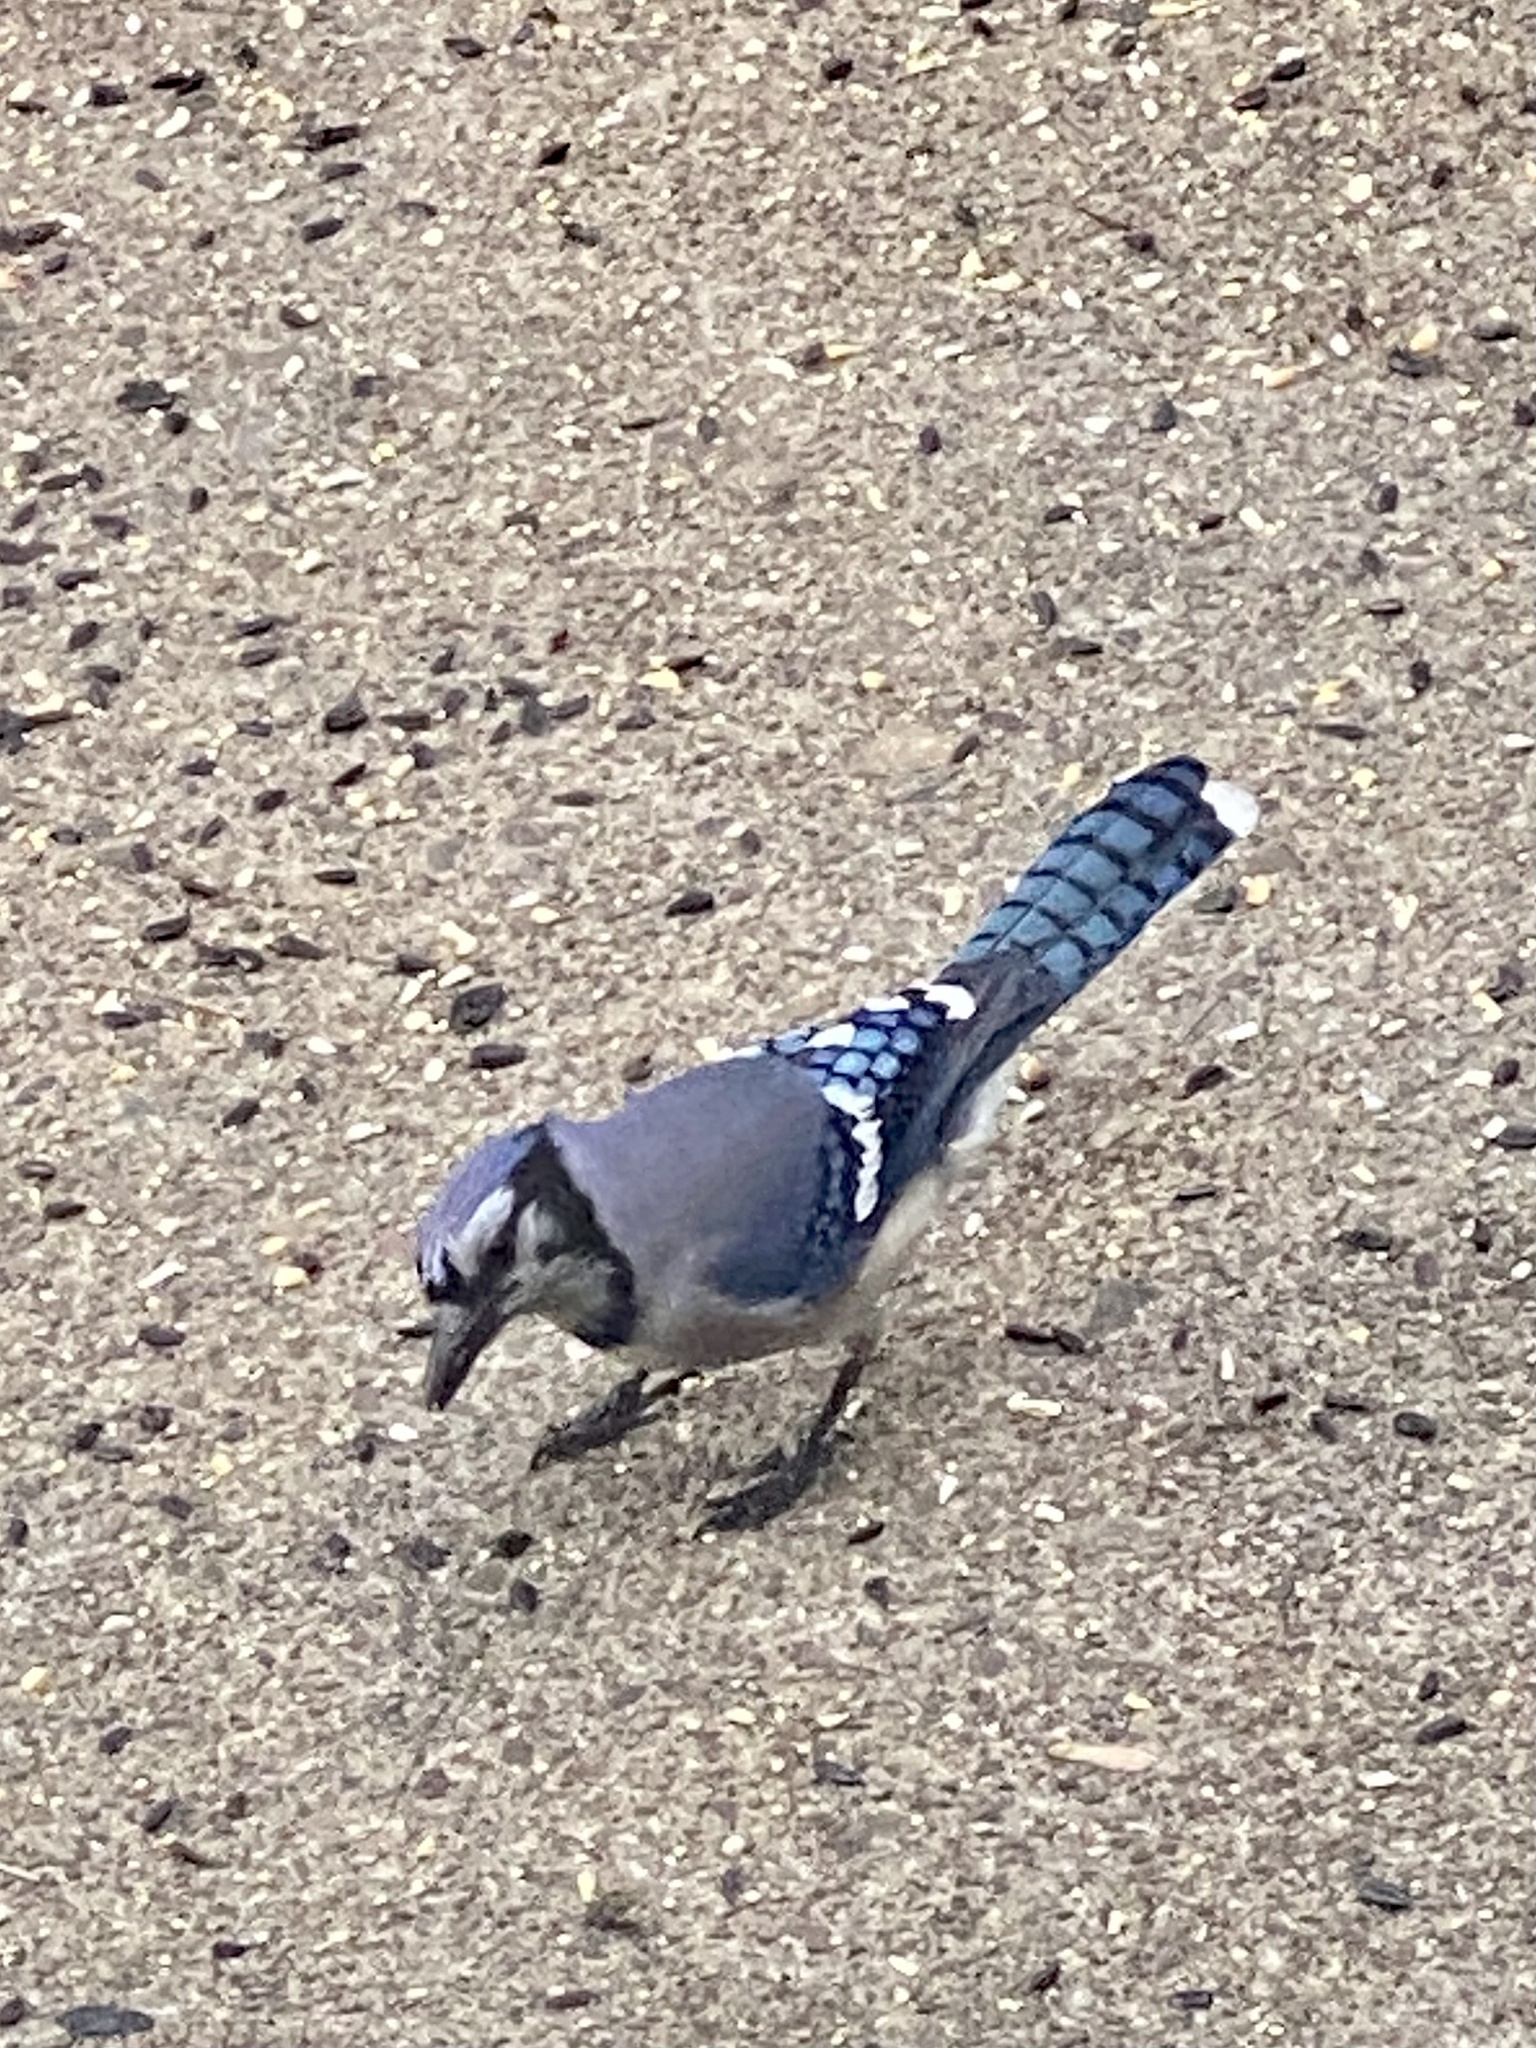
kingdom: Animalia
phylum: Chordata
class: Aves
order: Passeriformes
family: Corvidae
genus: Cyanocitta
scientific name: Cyanocitta cristata
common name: Blue jay
